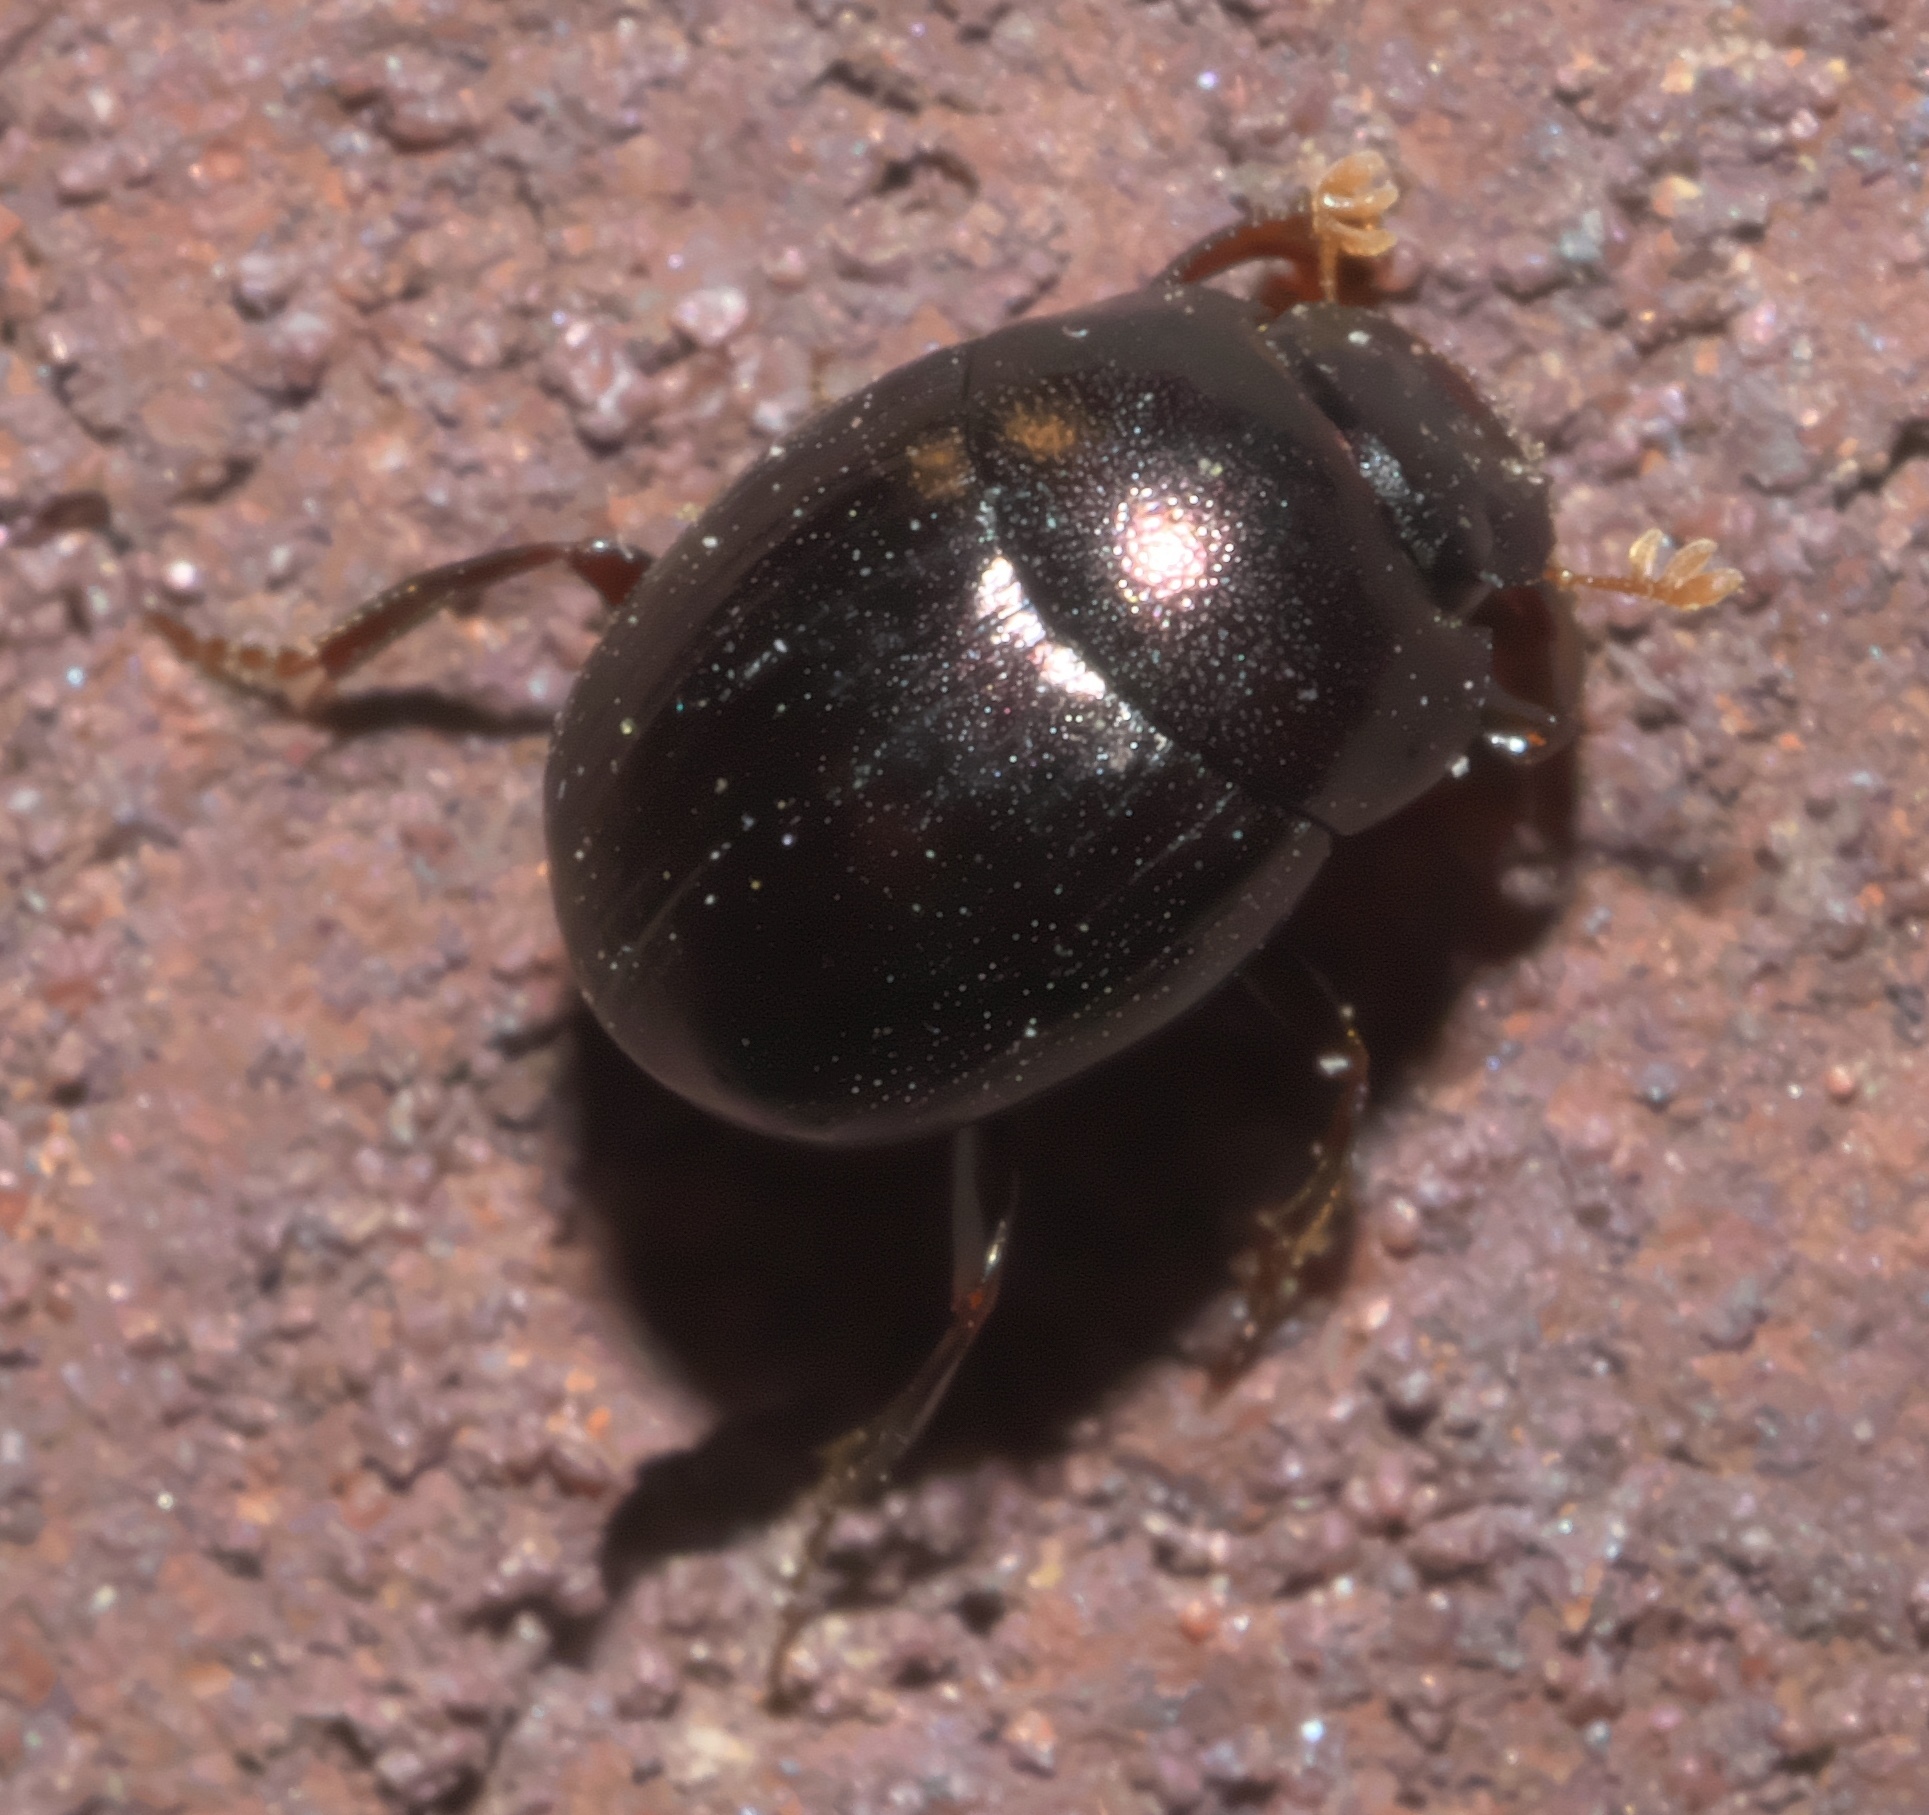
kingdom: Animalia
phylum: Arthropoda
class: Insecta
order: Coleoptera
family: Scarabaeidae
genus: Pseudocanthon
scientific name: Pseudocanthon perplexus
